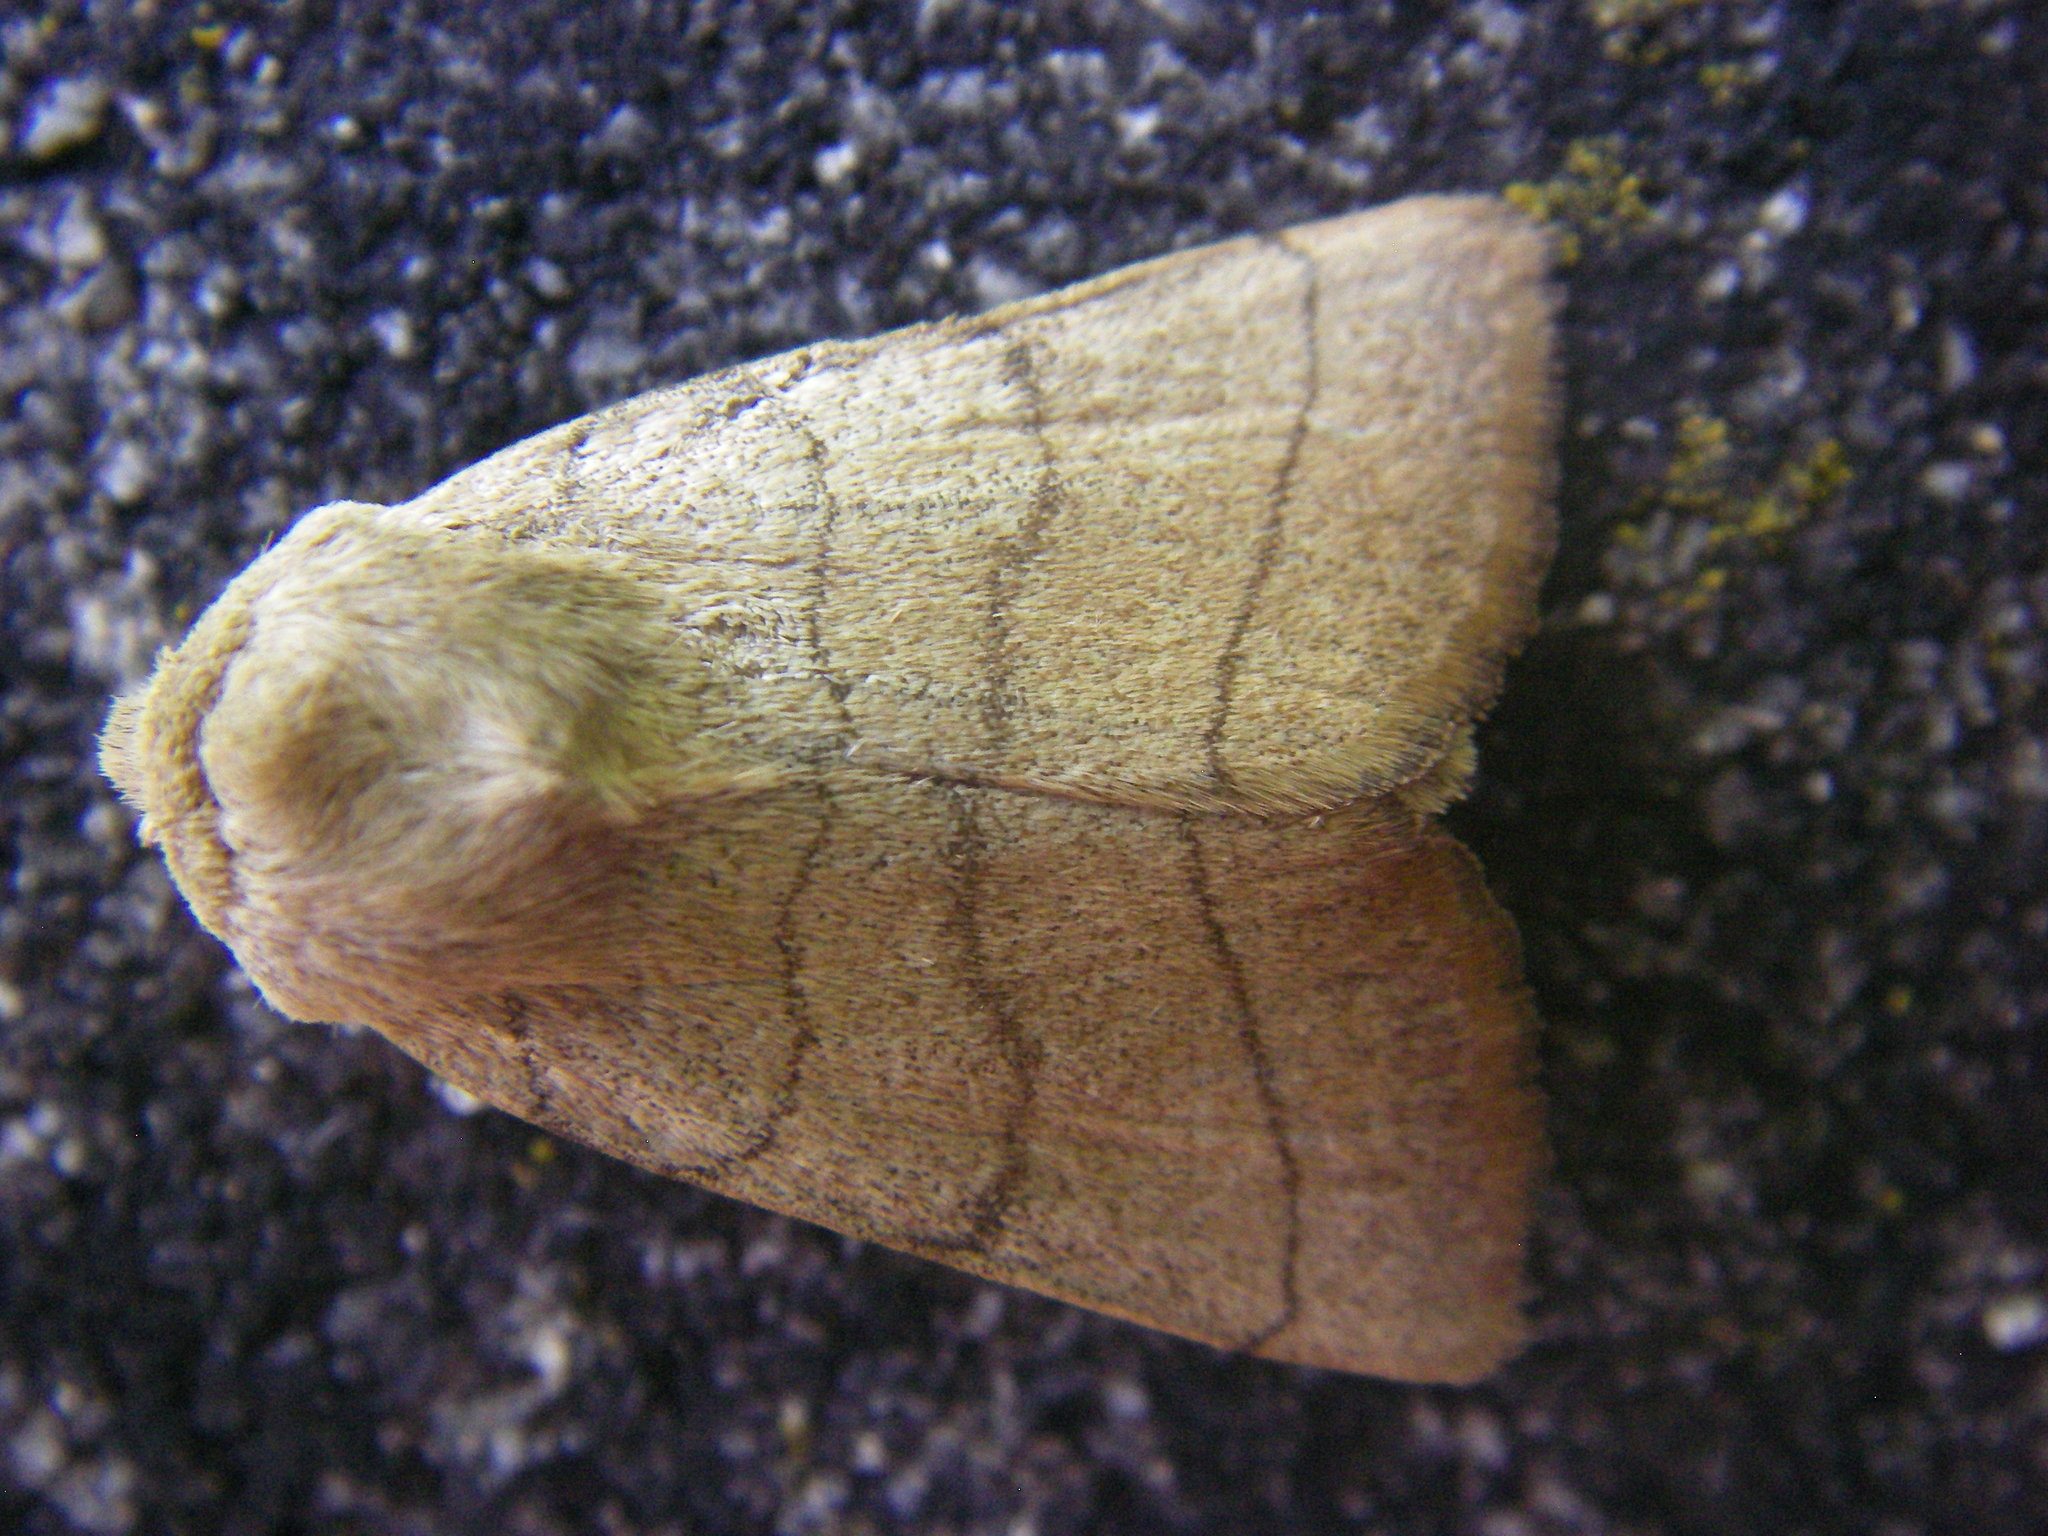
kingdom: Animalia
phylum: Arthropoda
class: Insecta
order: Lepidoptera
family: Noctuidae
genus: Charanyca
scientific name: Charanyca trigrammica
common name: Treble lines
